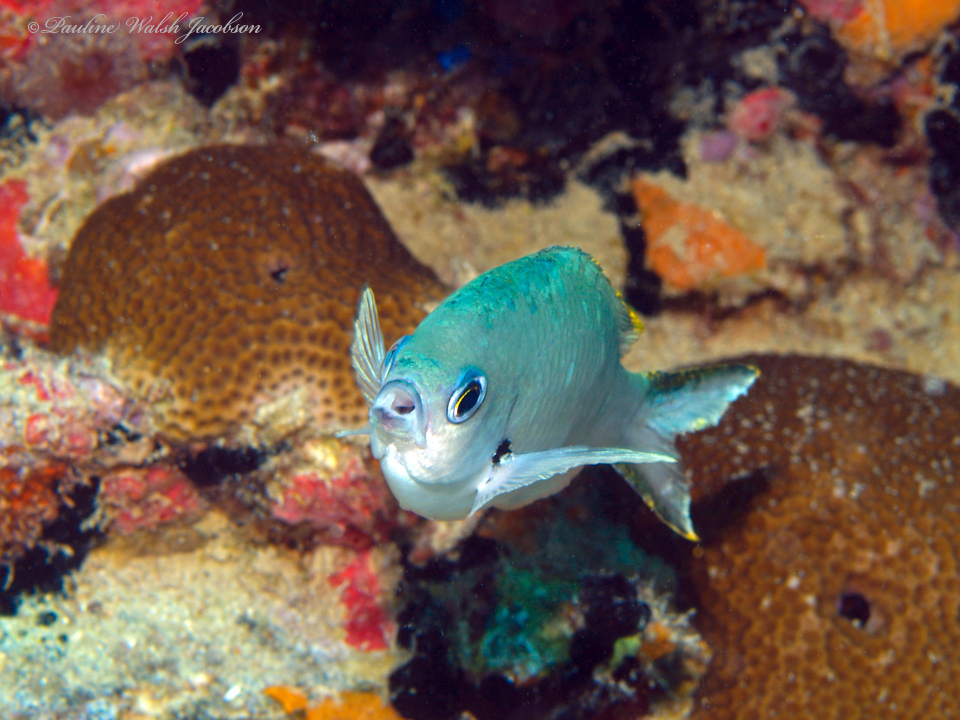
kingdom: Animalia
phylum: Chordata
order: Perciformes
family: Pomacentridae
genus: Chromis
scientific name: Chromis multilineata
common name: Brown chromis
